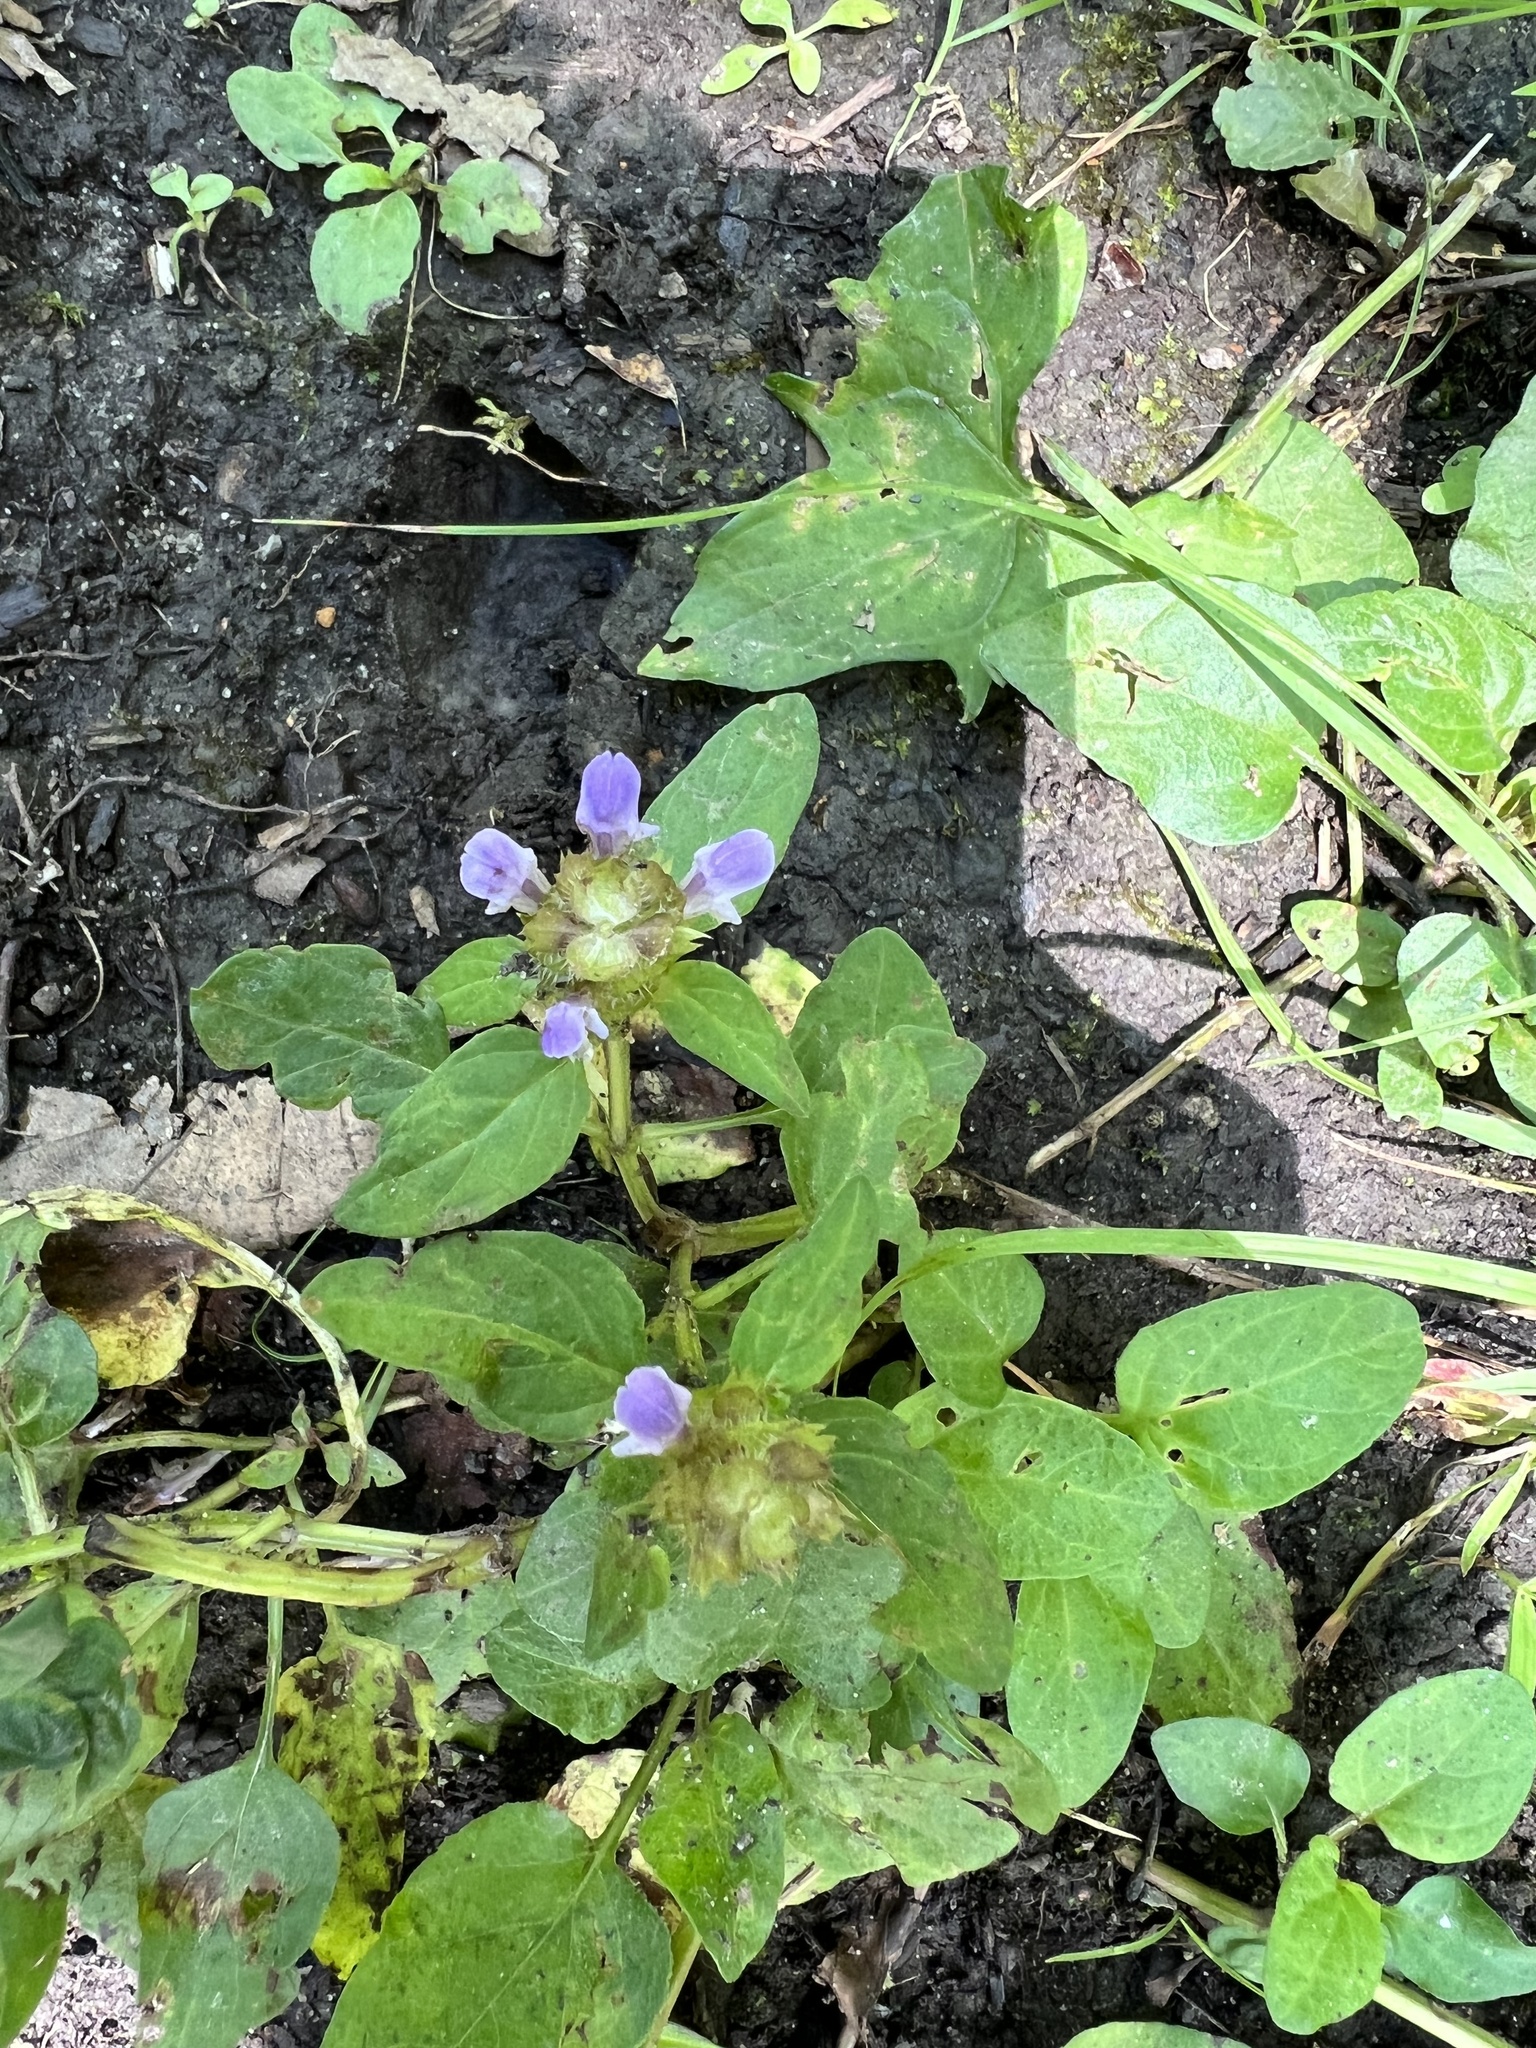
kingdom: Plantae
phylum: Tracheophyta
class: Magnoliopsida
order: Lamiales
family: Lamiaceae
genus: Prunella
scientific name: Prunella vulgaris
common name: Heal-all
